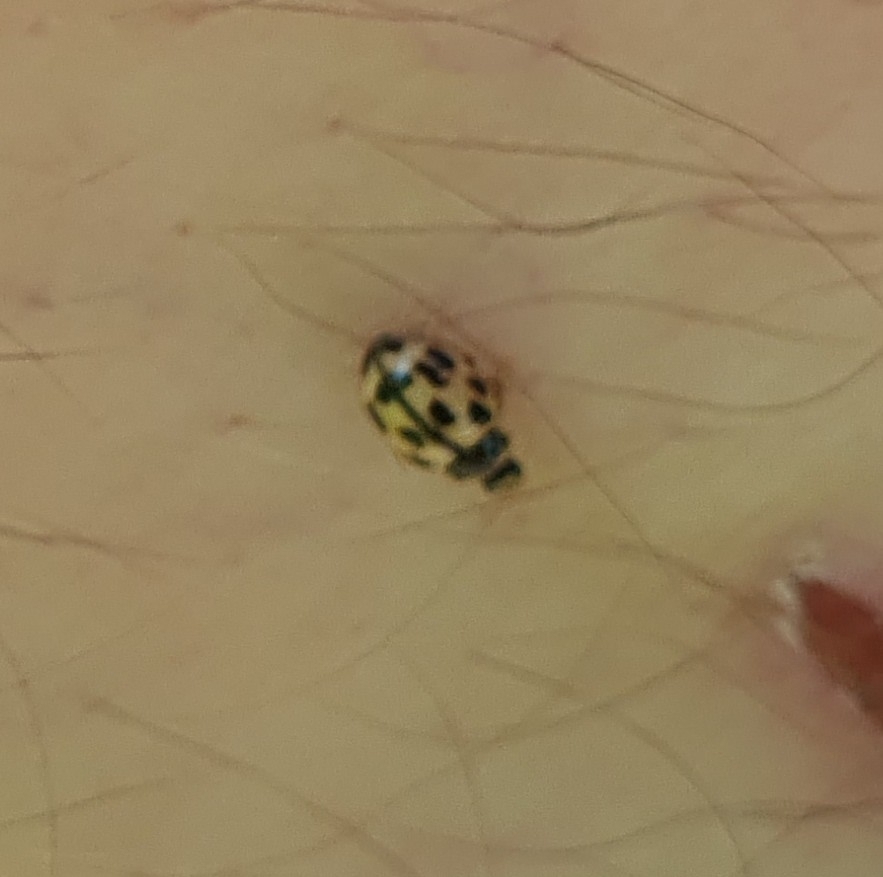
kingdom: Animalia
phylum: Arthropoda
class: Insecta
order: Coleoptera
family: Coccinellidae
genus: Propylaea
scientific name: Propylaea quatuordecimpunctata
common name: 14-spotted ladybird beetle
